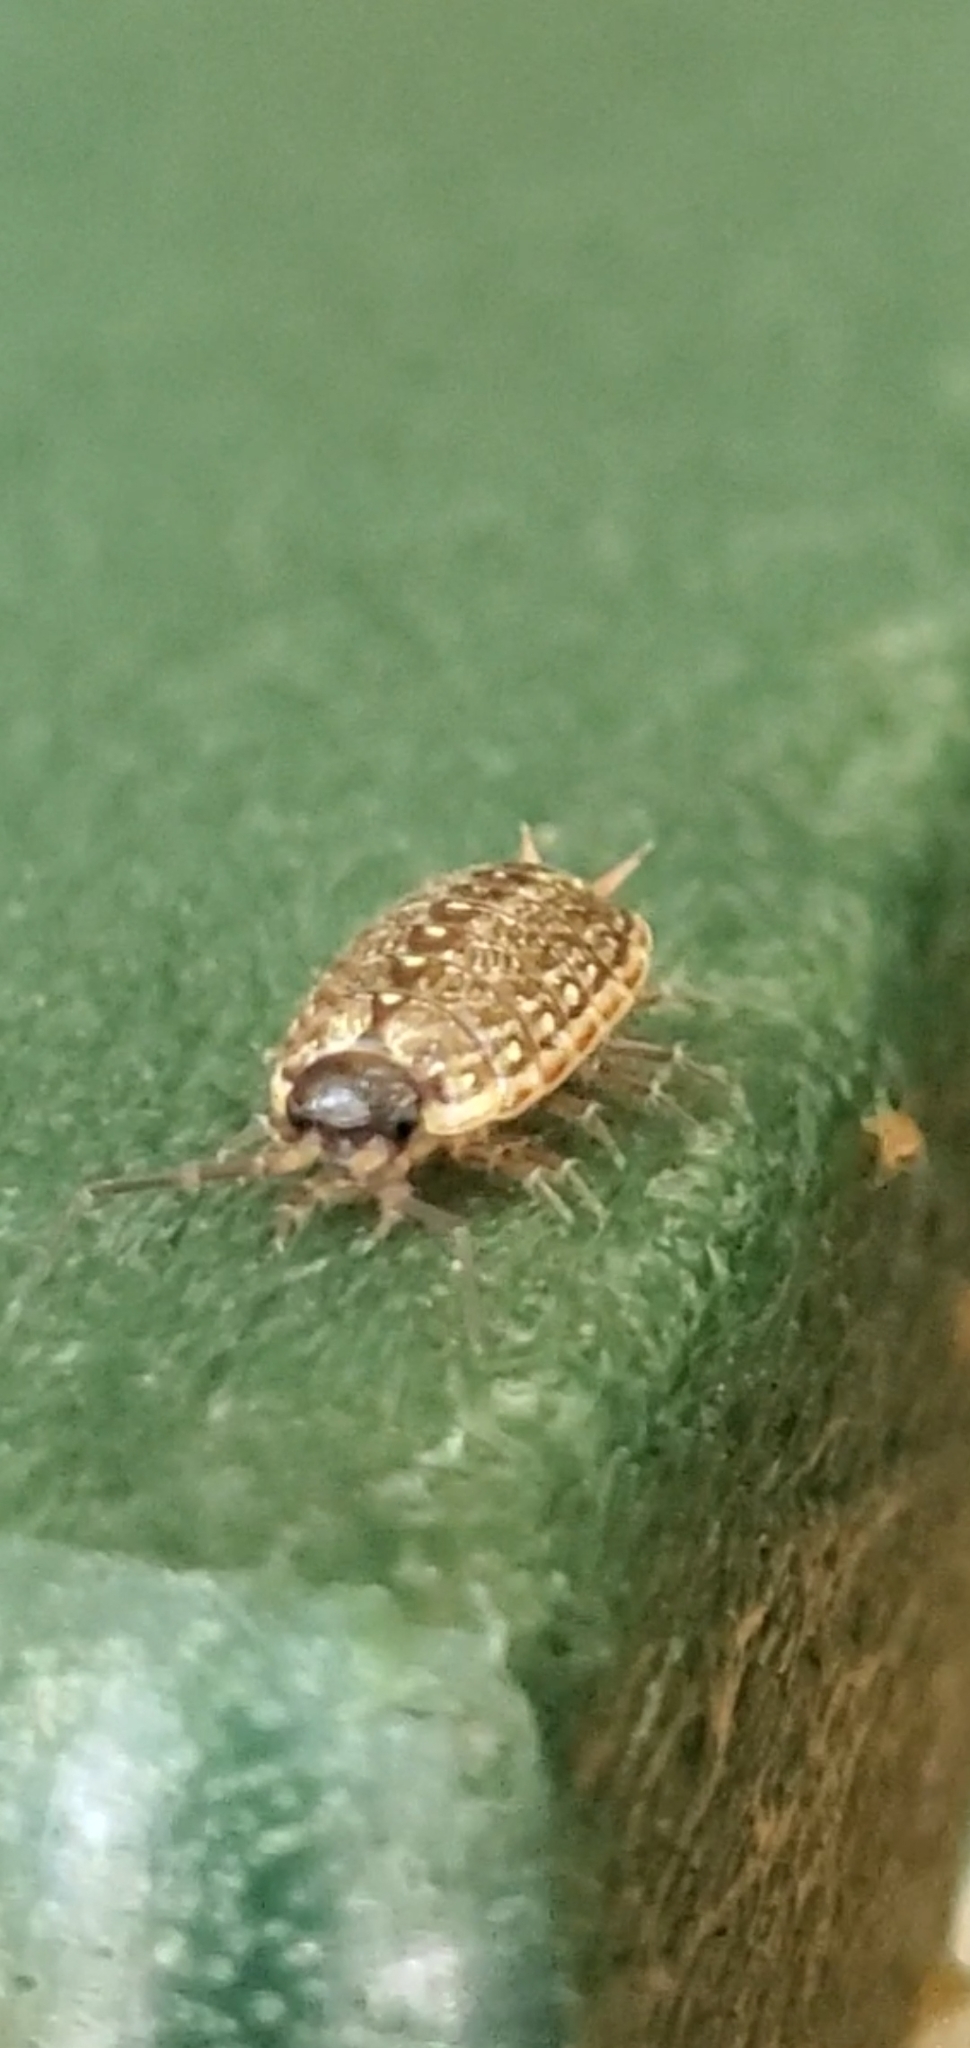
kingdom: Animalia
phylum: Arthropoda
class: Malacostraca
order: Isopoda
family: Philosciidae
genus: Philoscia
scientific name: Philoscia muscorum
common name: Common striped woodlouse
